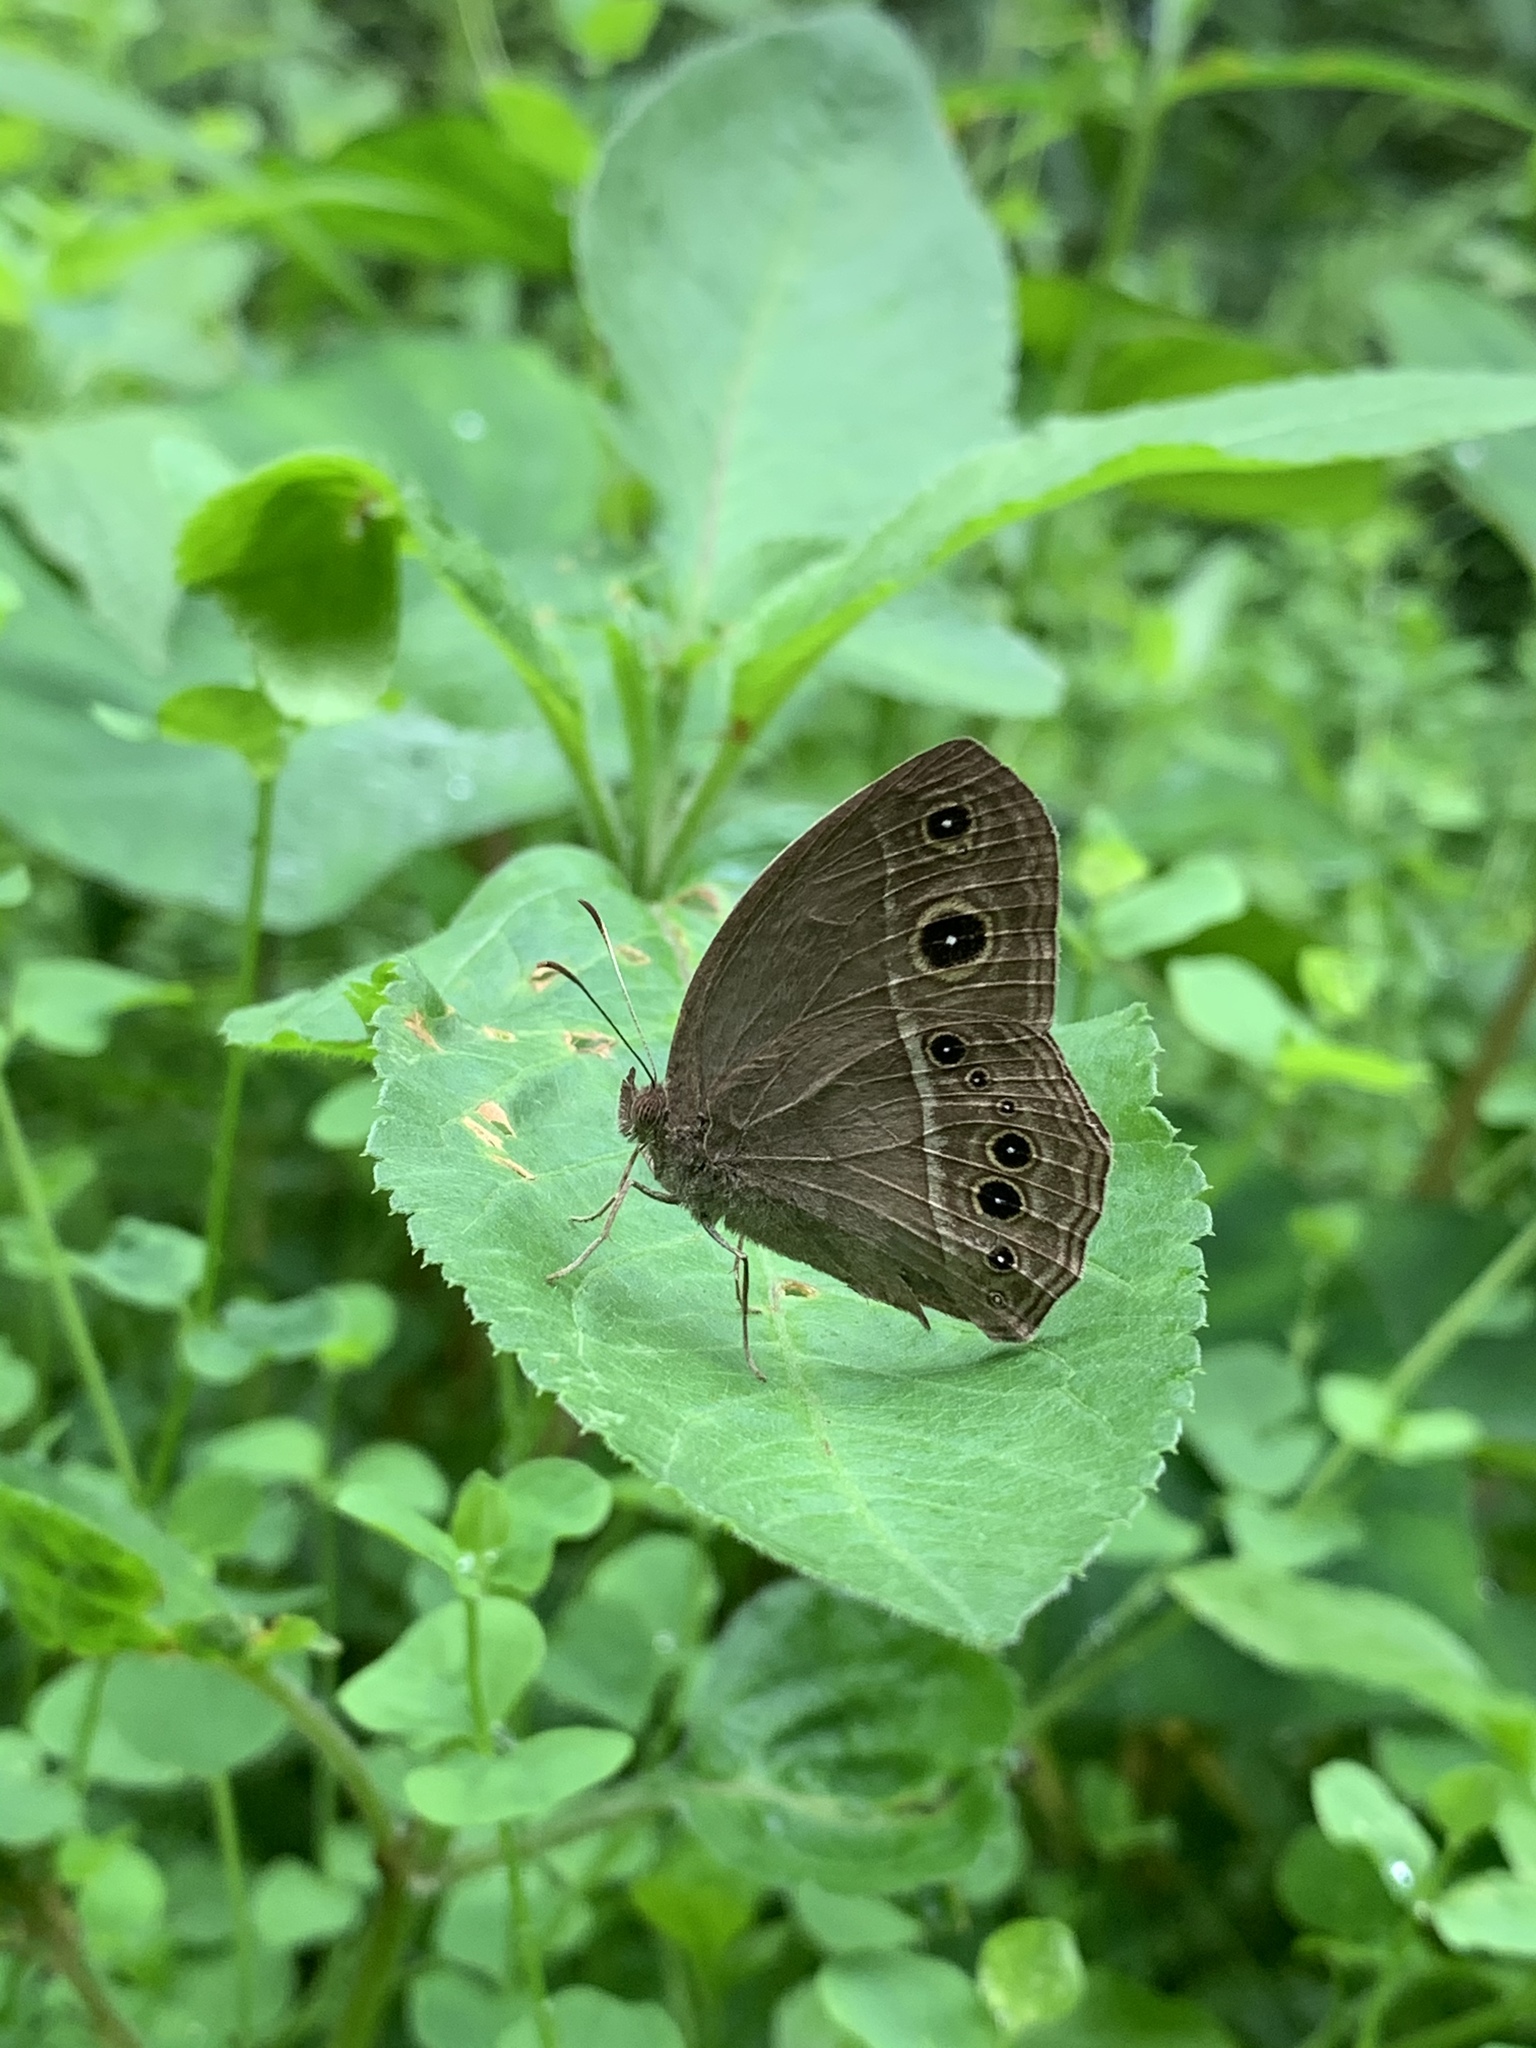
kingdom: Animalia
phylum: Arthropoda
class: Insecta
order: Lepidoptera
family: Nymphalidae
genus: Mycalesis
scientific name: Mycalesis horsfieldii
